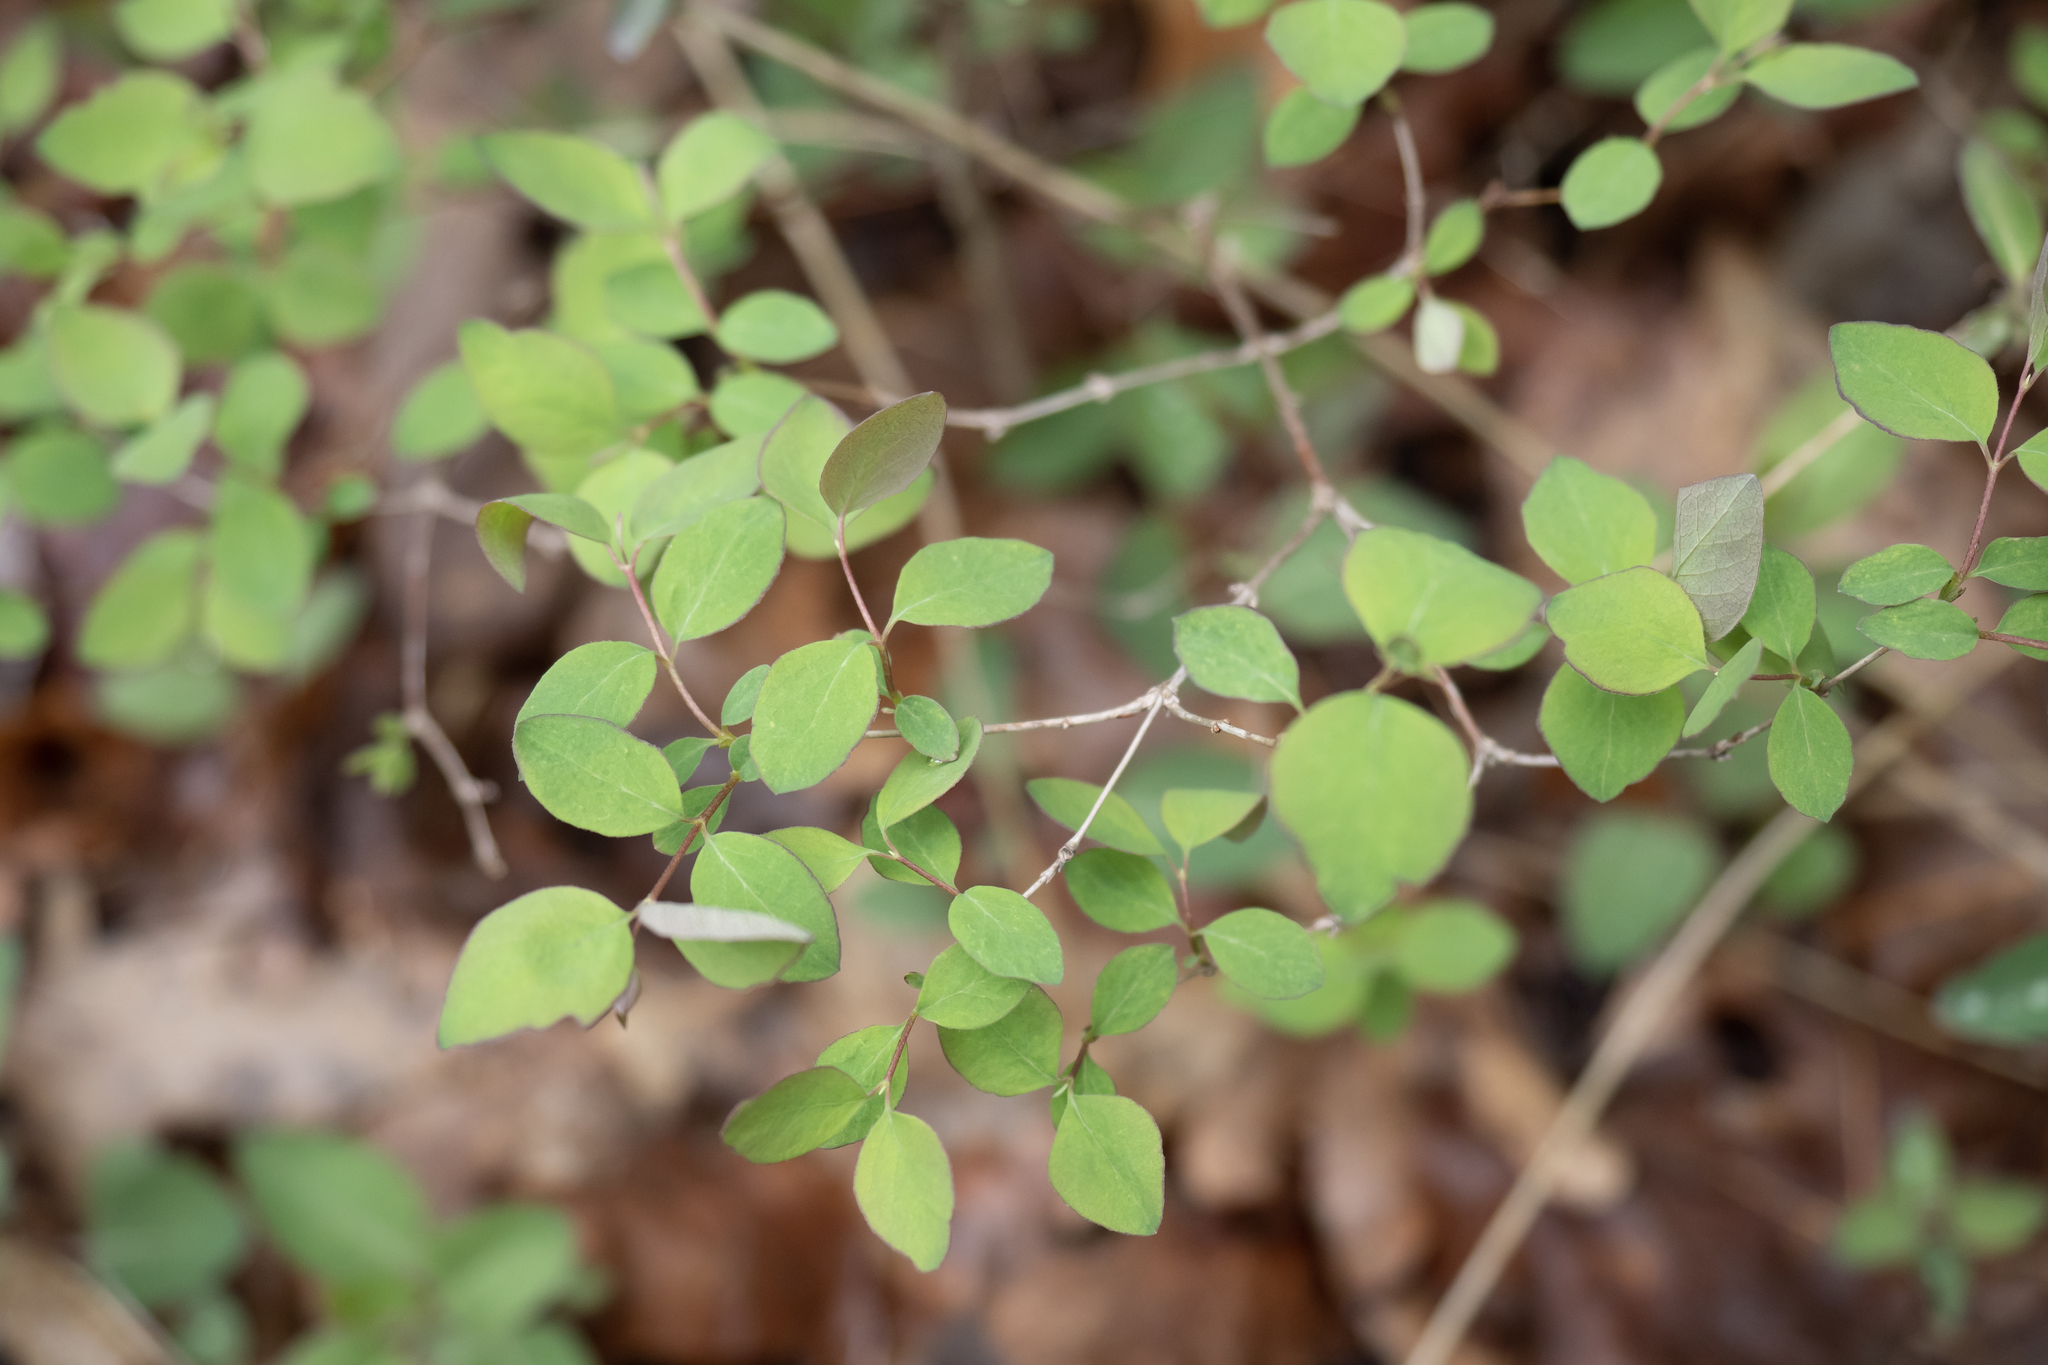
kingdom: Plantae
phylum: Tracheophyta
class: Magnoliopsida
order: Dipsacales
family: Caprifoliaceae
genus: Symphoricarpos
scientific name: Symphoricarpos albus
